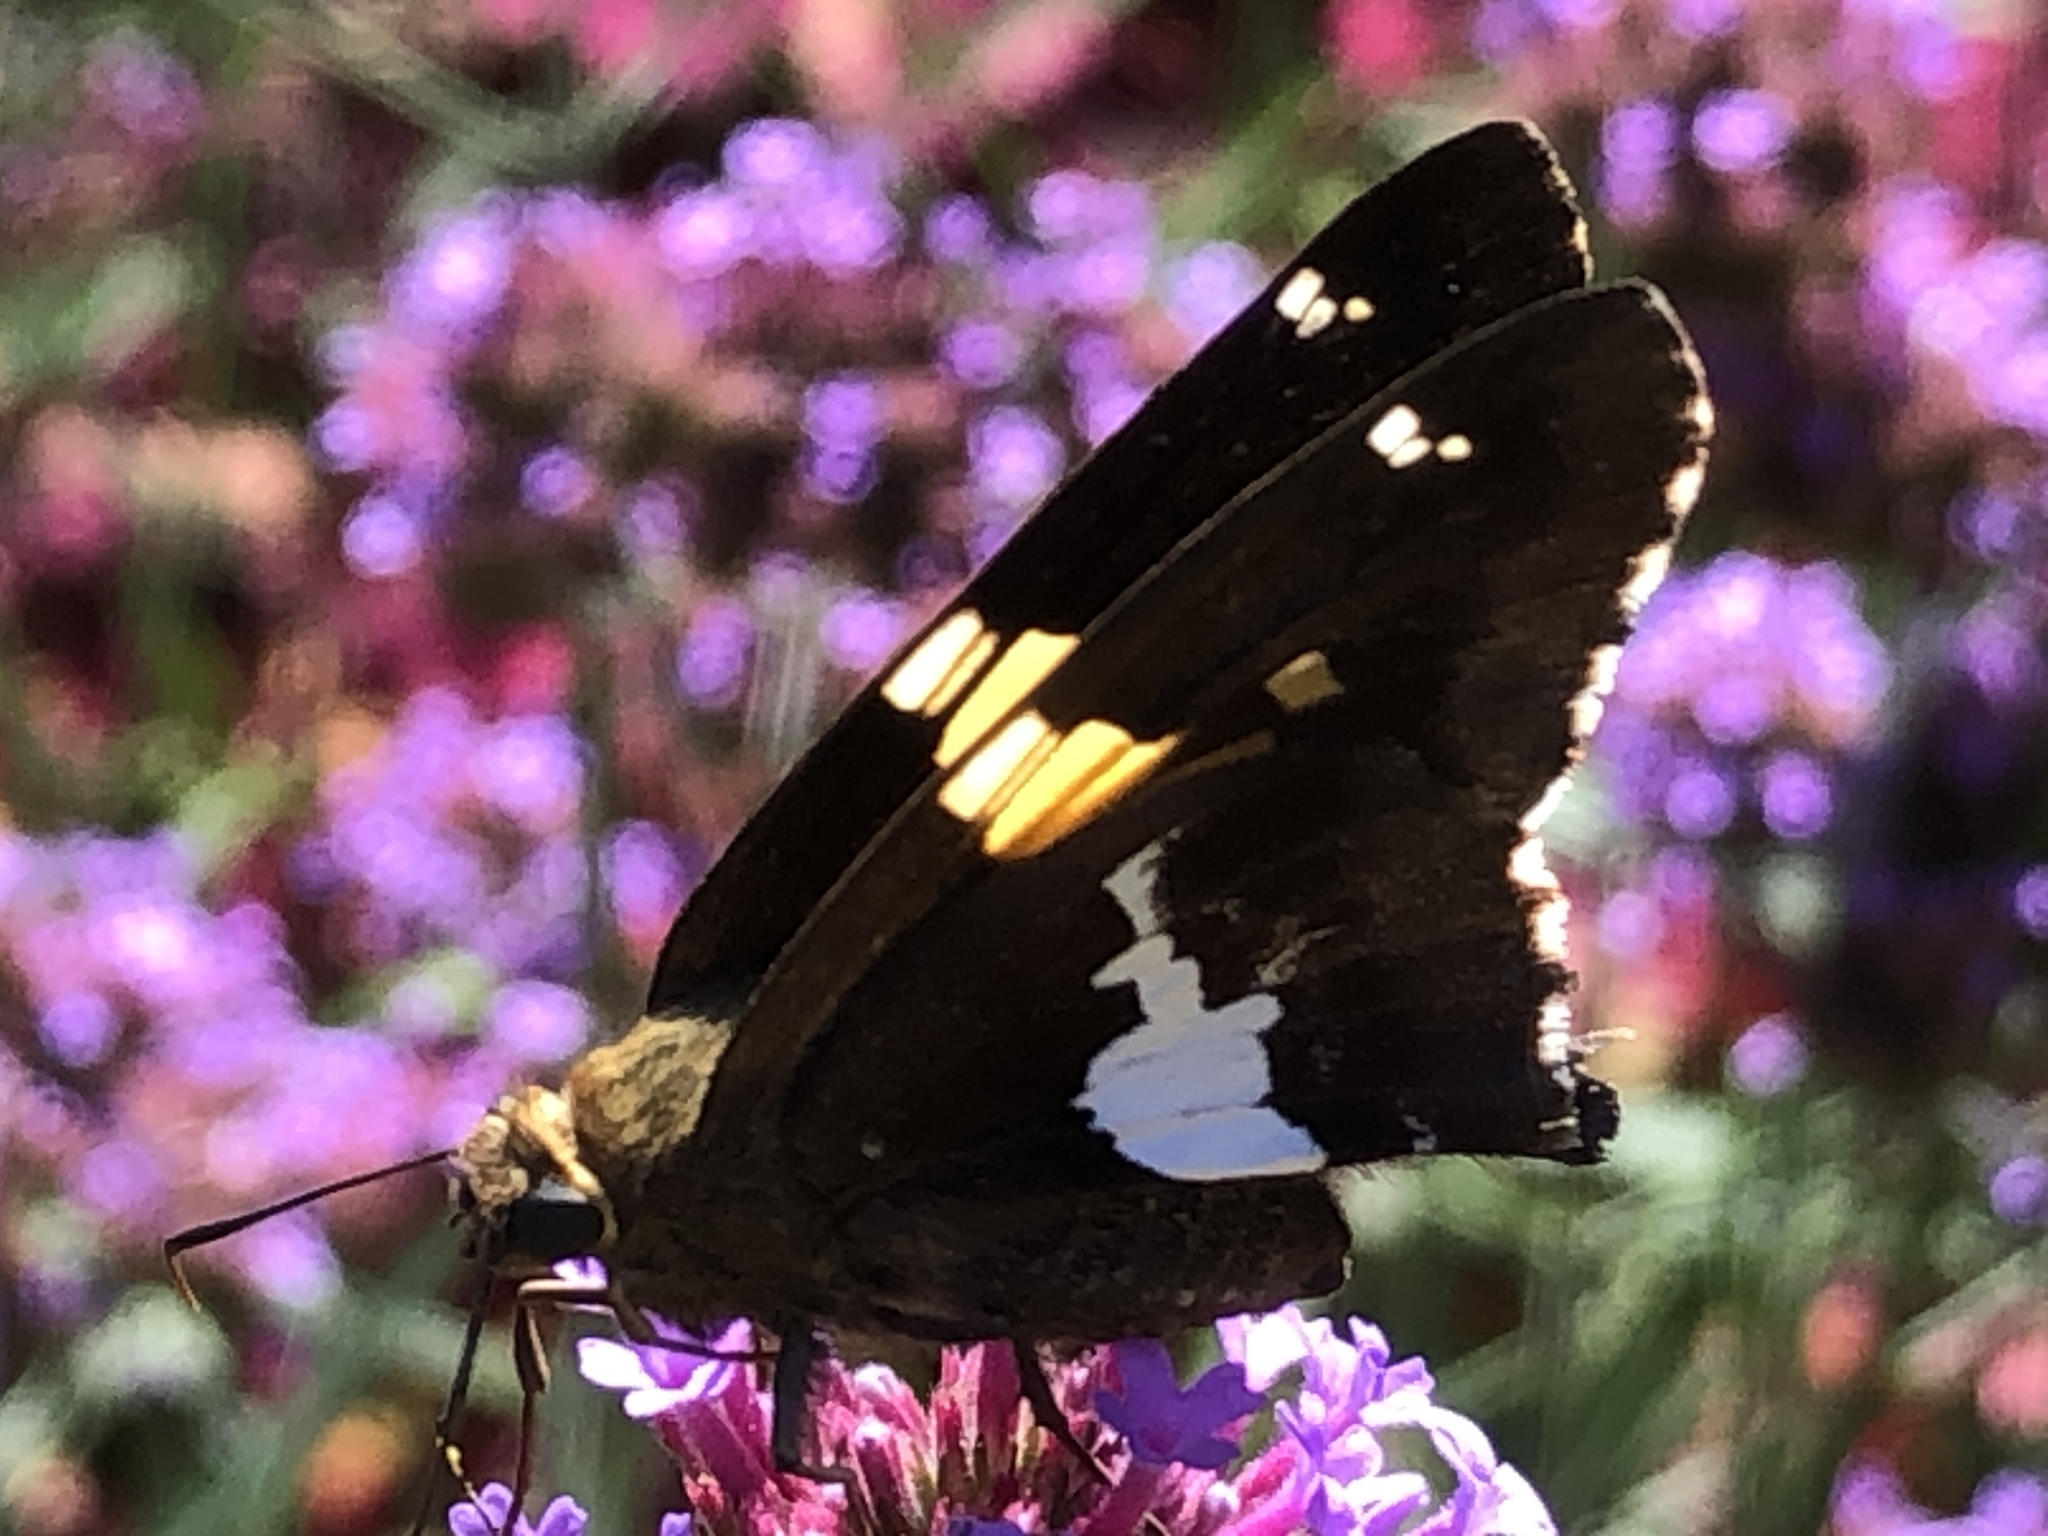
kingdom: Animalia
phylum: Arthropoda
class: Insecta
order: Lepidoptera
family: Hesperiidae
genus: Epargyreus
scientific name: Epargyreus clarus
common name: Silver-spotted skipper
